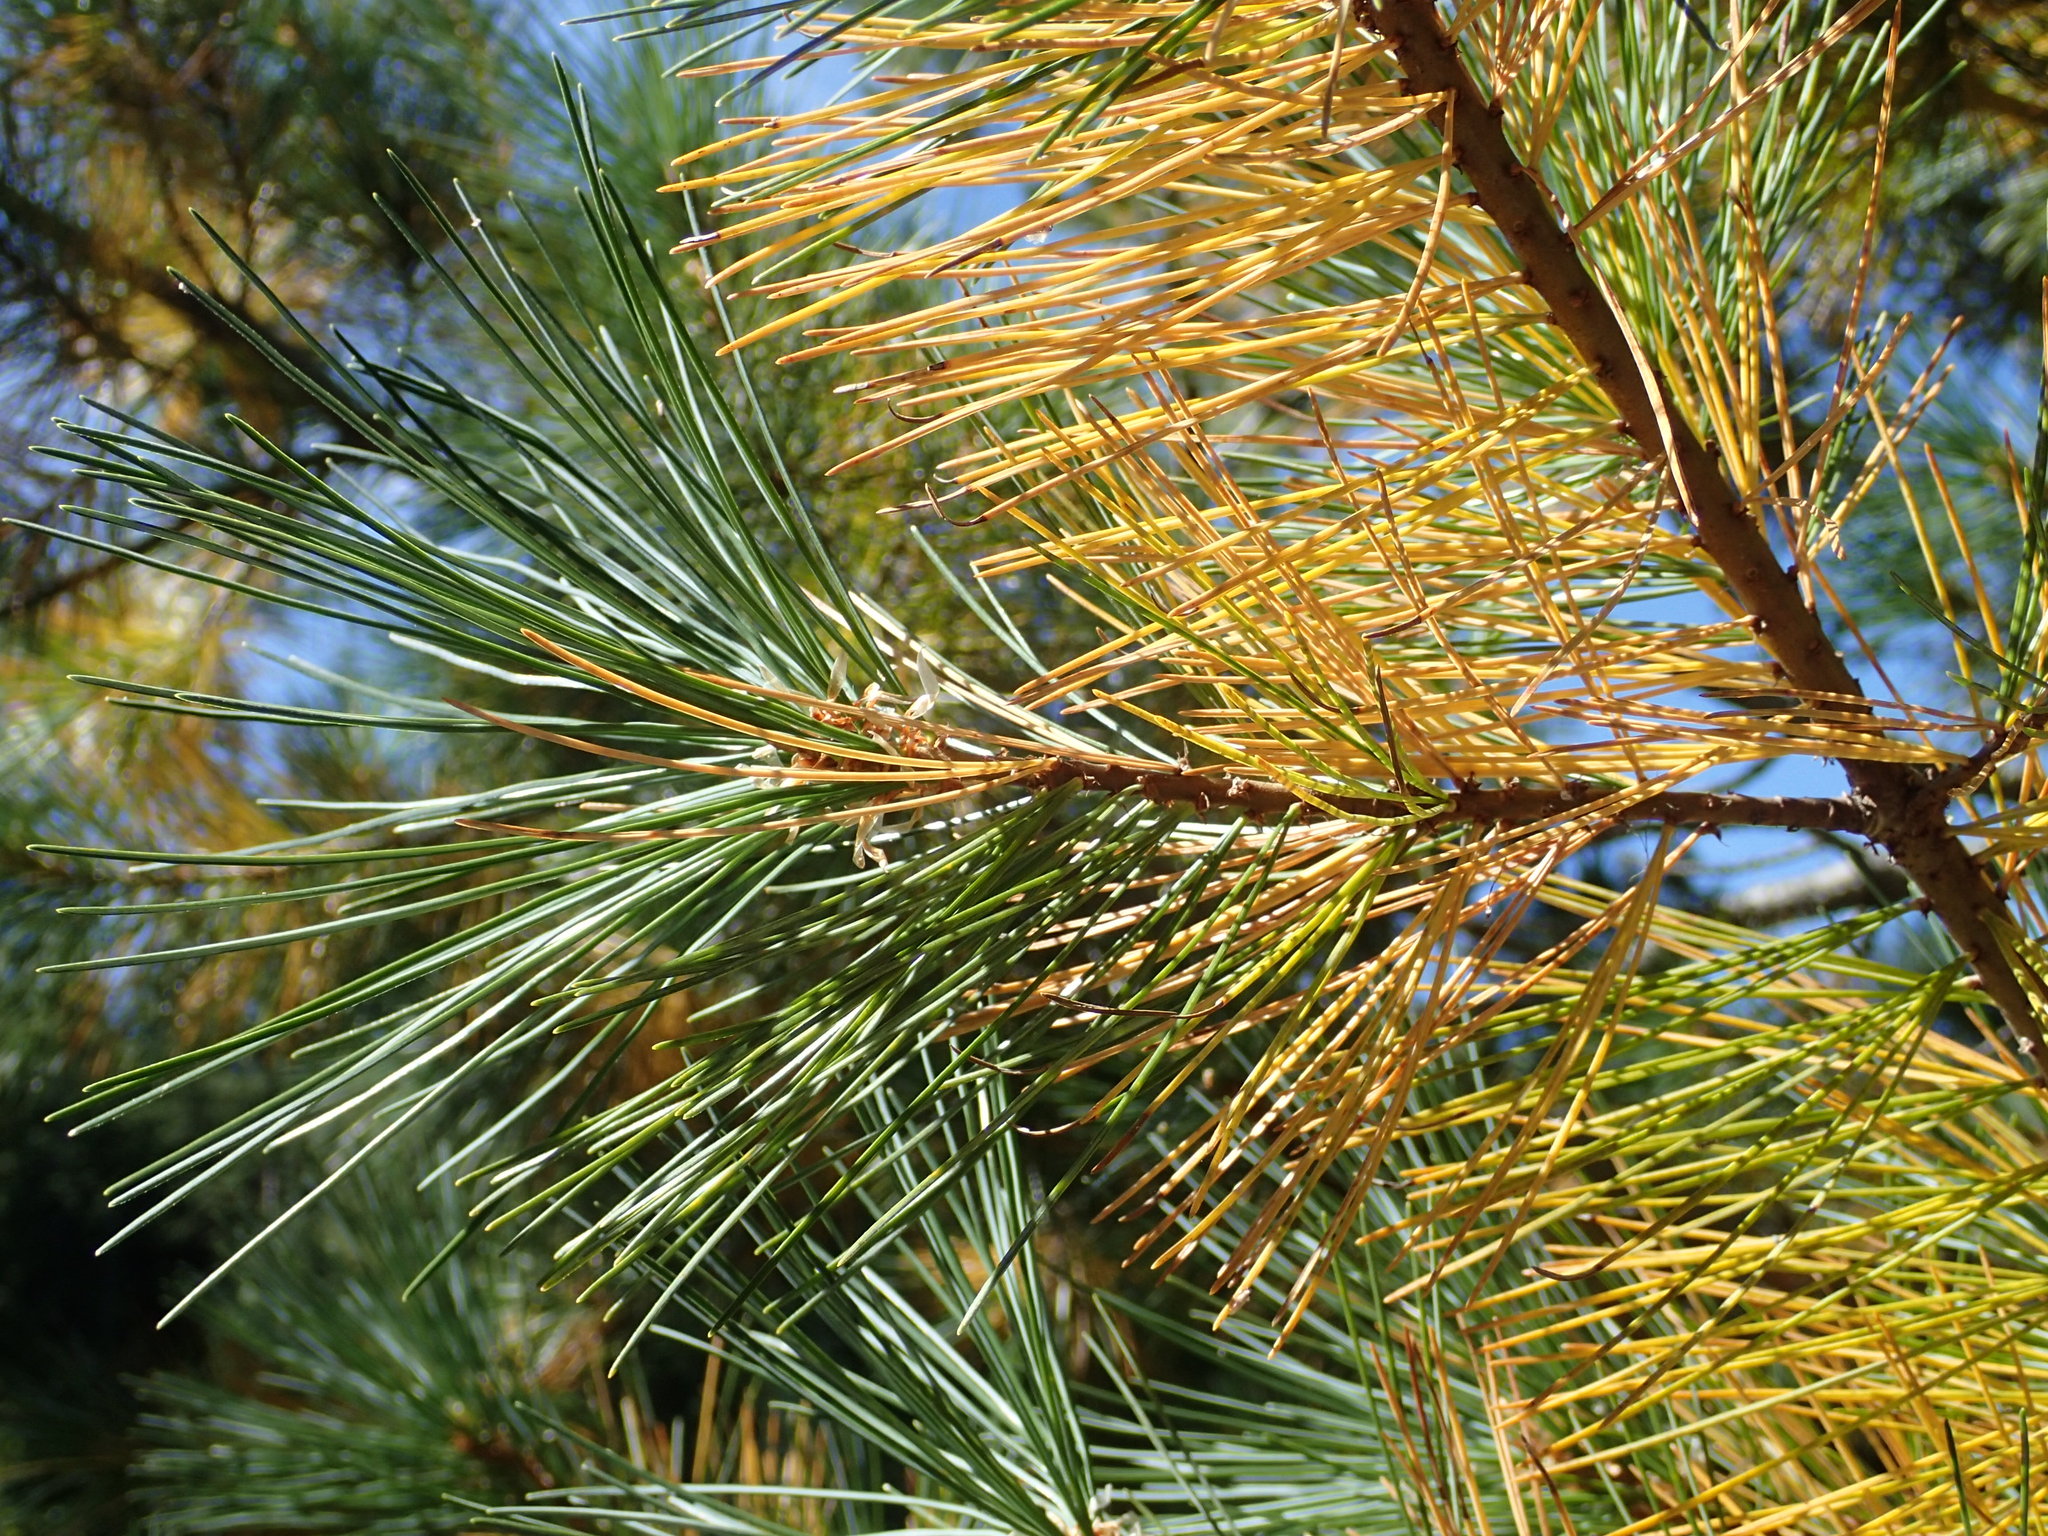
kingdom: Plantae
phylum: Tracheophyta
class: Pinopsida
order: Pinales
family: Pinaceae
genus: Pinus
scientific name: Pinus monticola
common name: Western white pine
